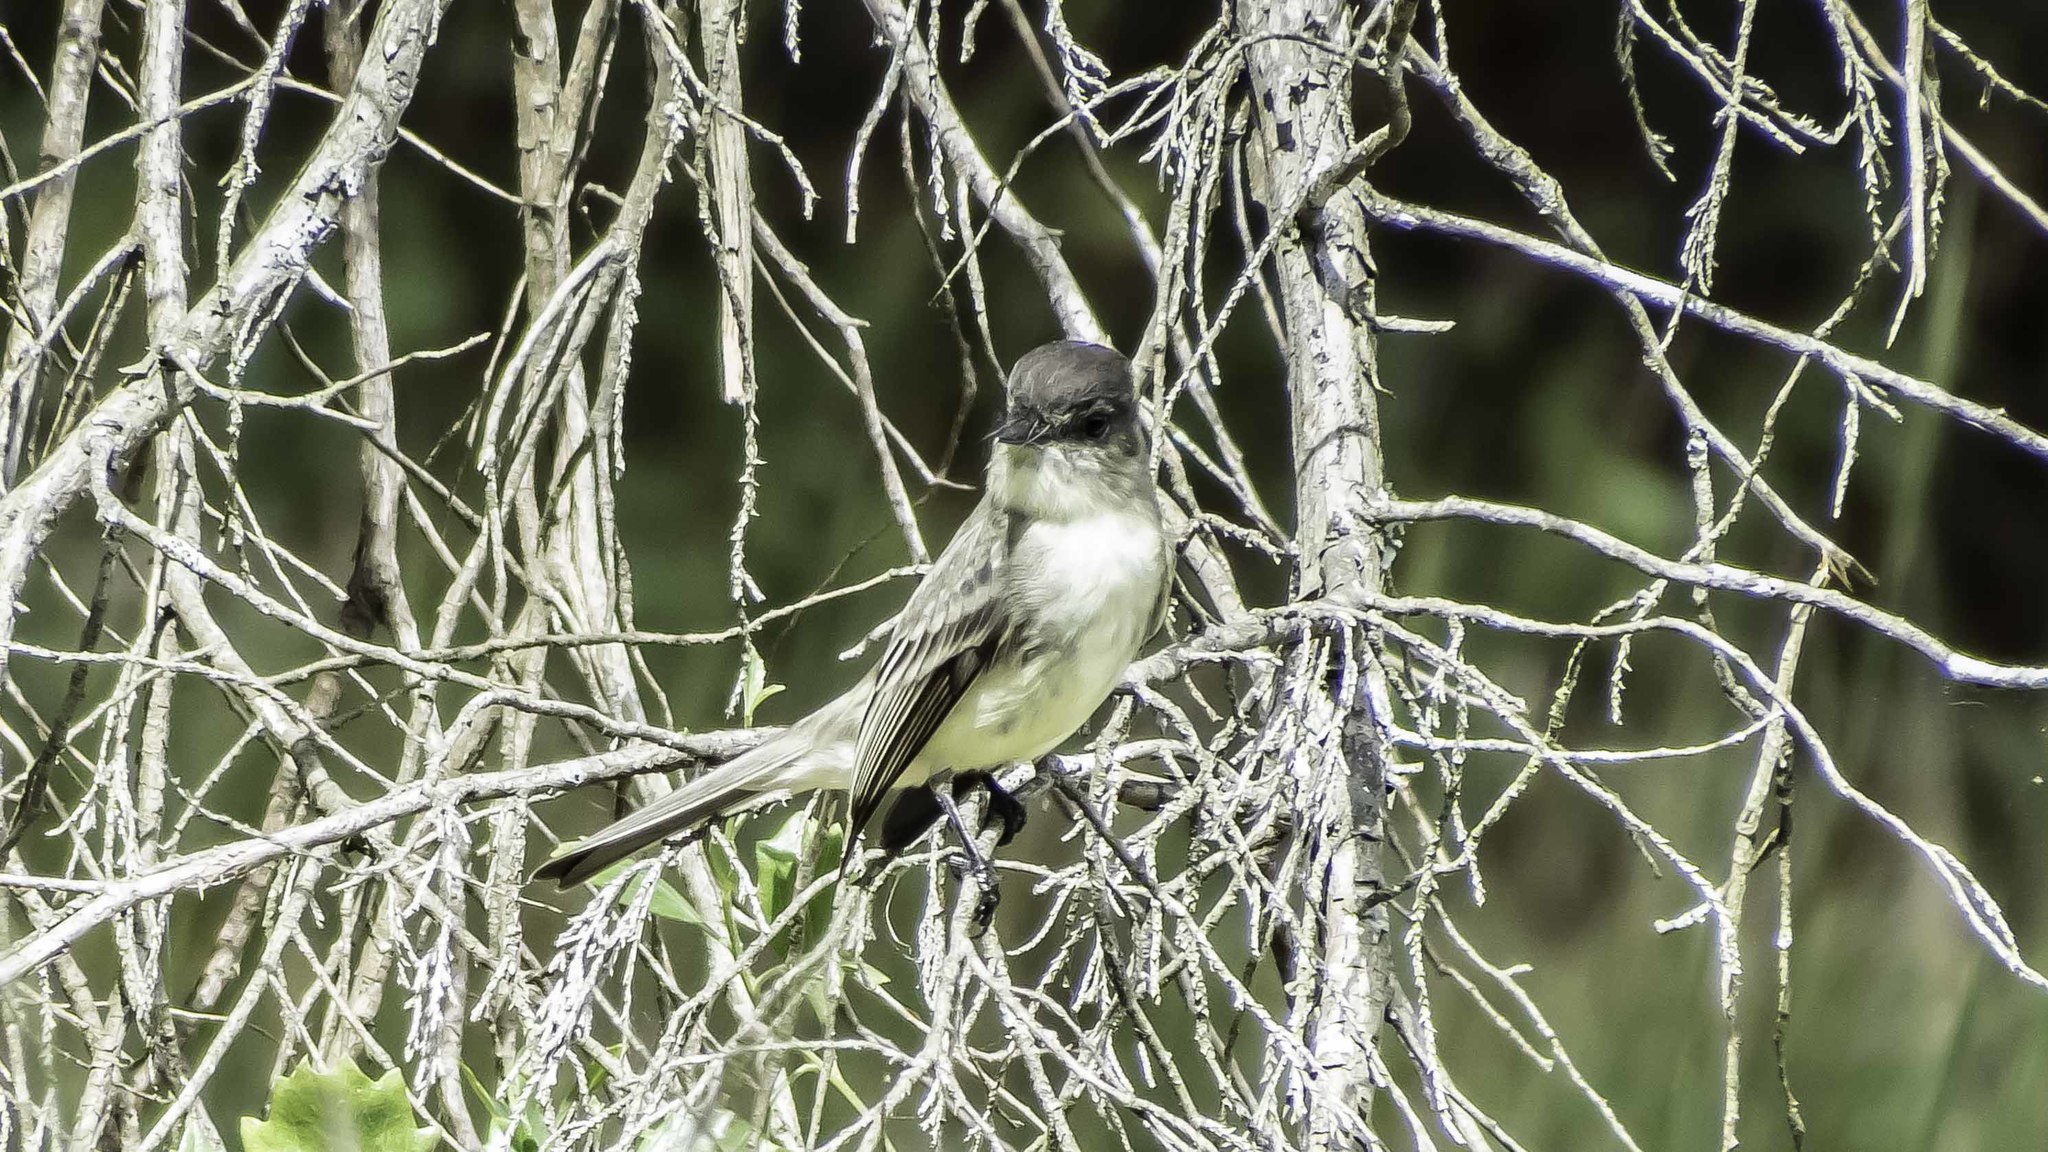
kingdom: Animalia
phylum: Chordata
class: Aves
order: Passeriformes
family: Tyrannidae
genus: Sayornis
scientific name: Sayornis phoebe
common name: Eastern phoebe
